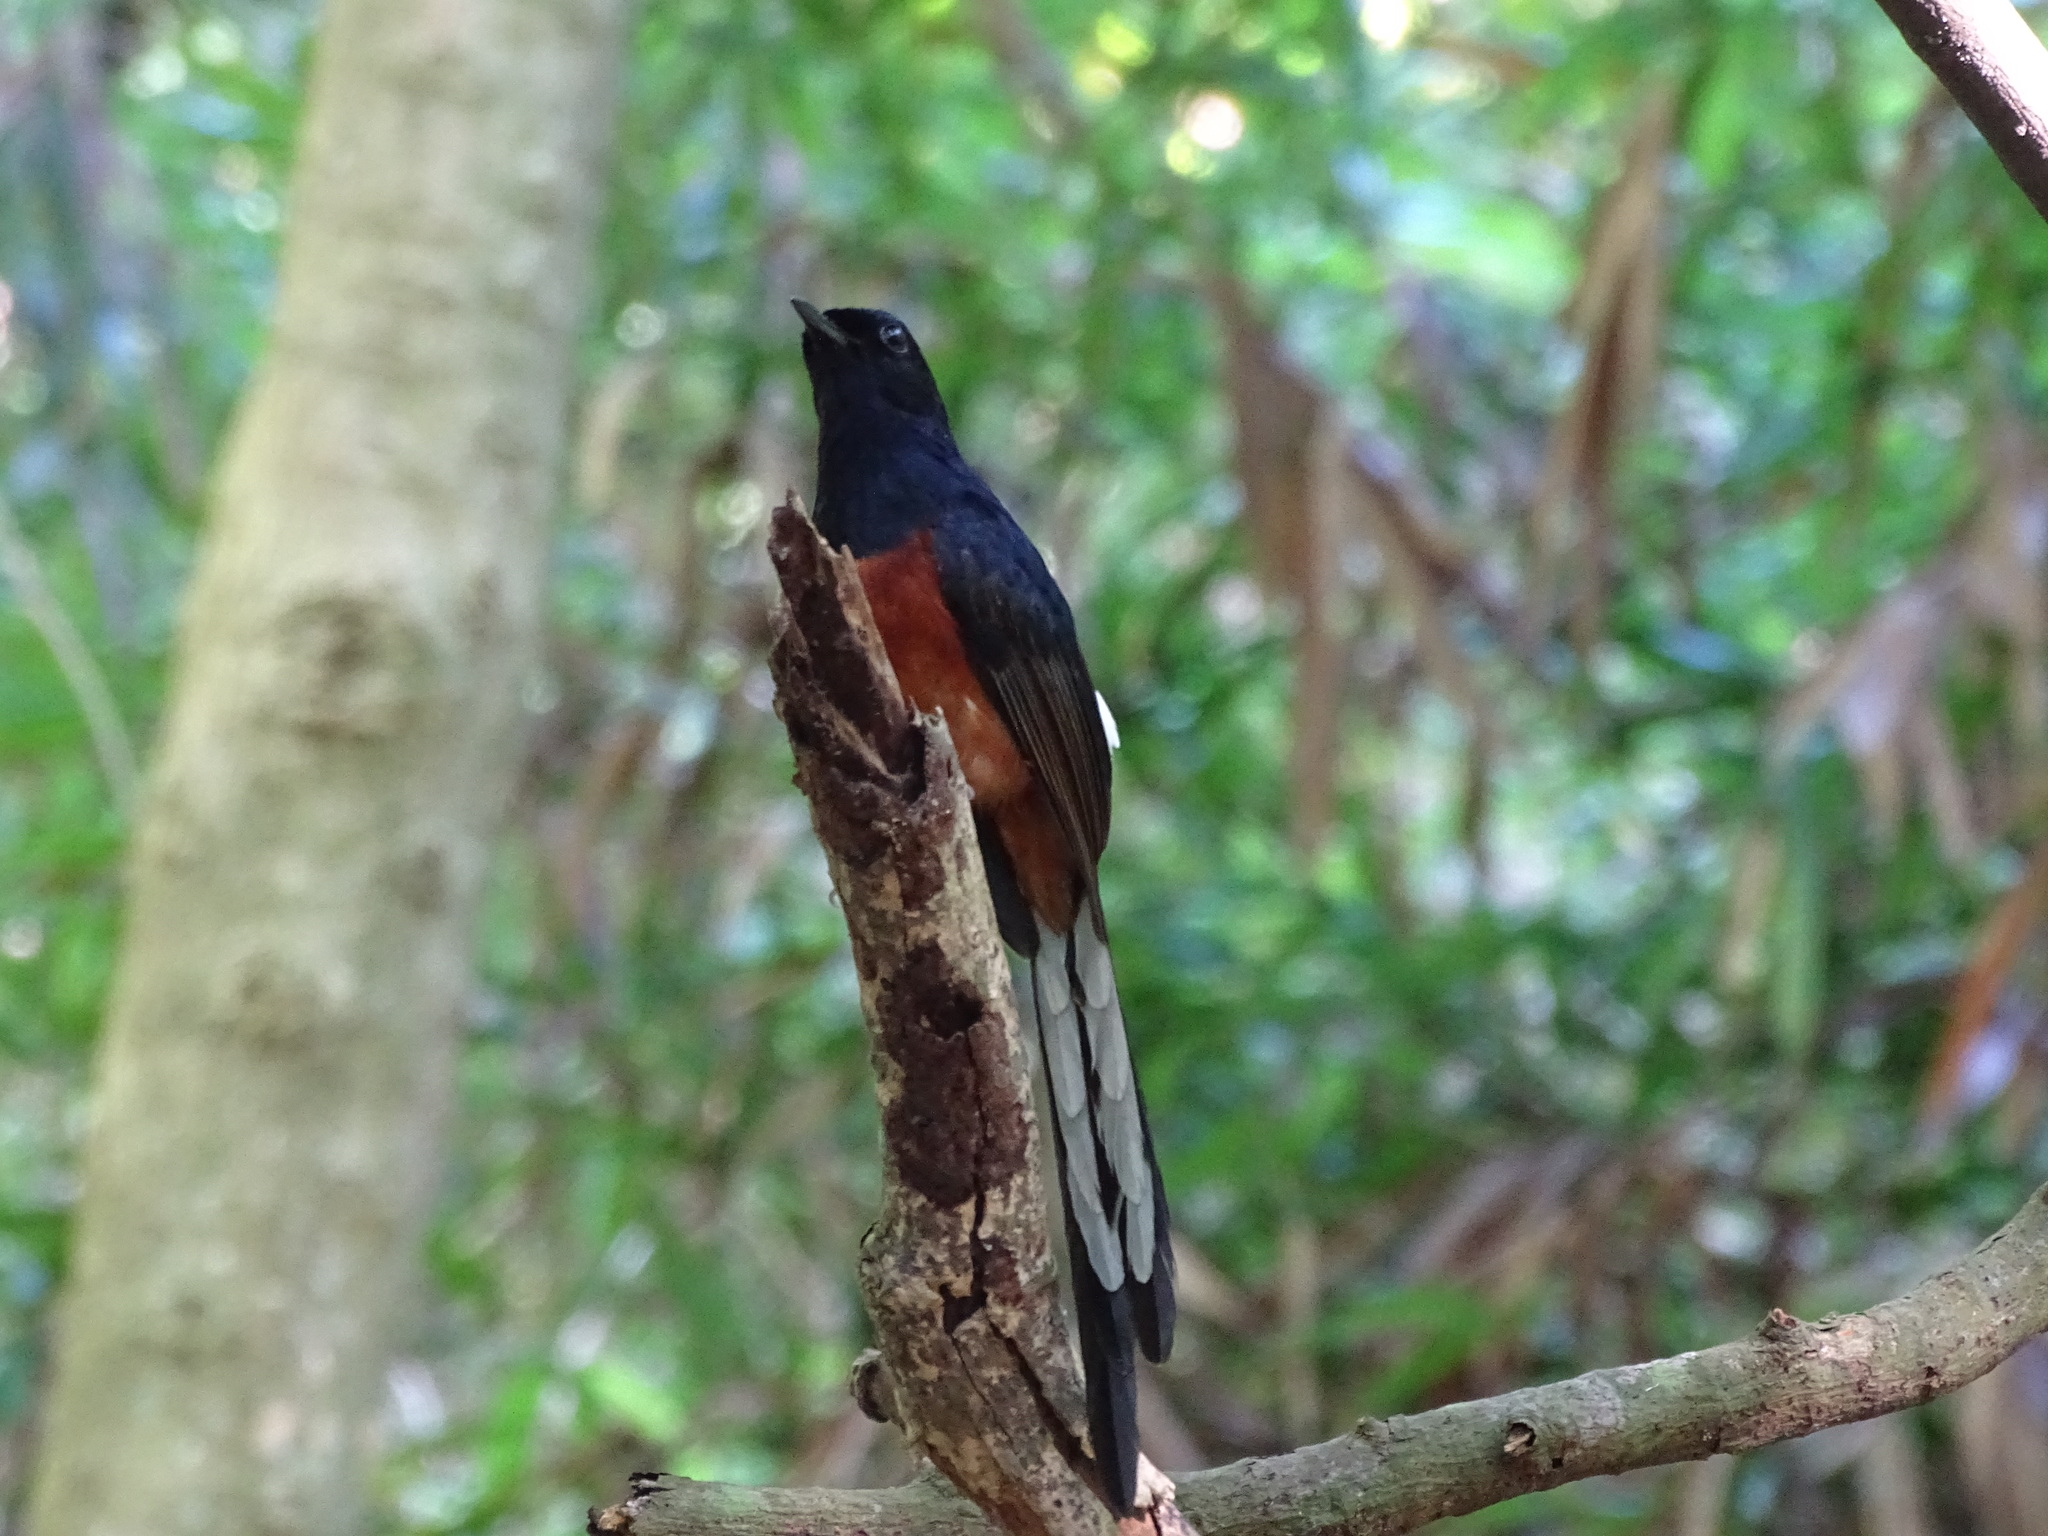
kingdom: Animalia
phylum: Chordata
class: Aves
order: Passeriformes
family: Muscicapidae
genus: Copsychus
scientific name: Copsychus malabaricus
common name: White-rumped shama
